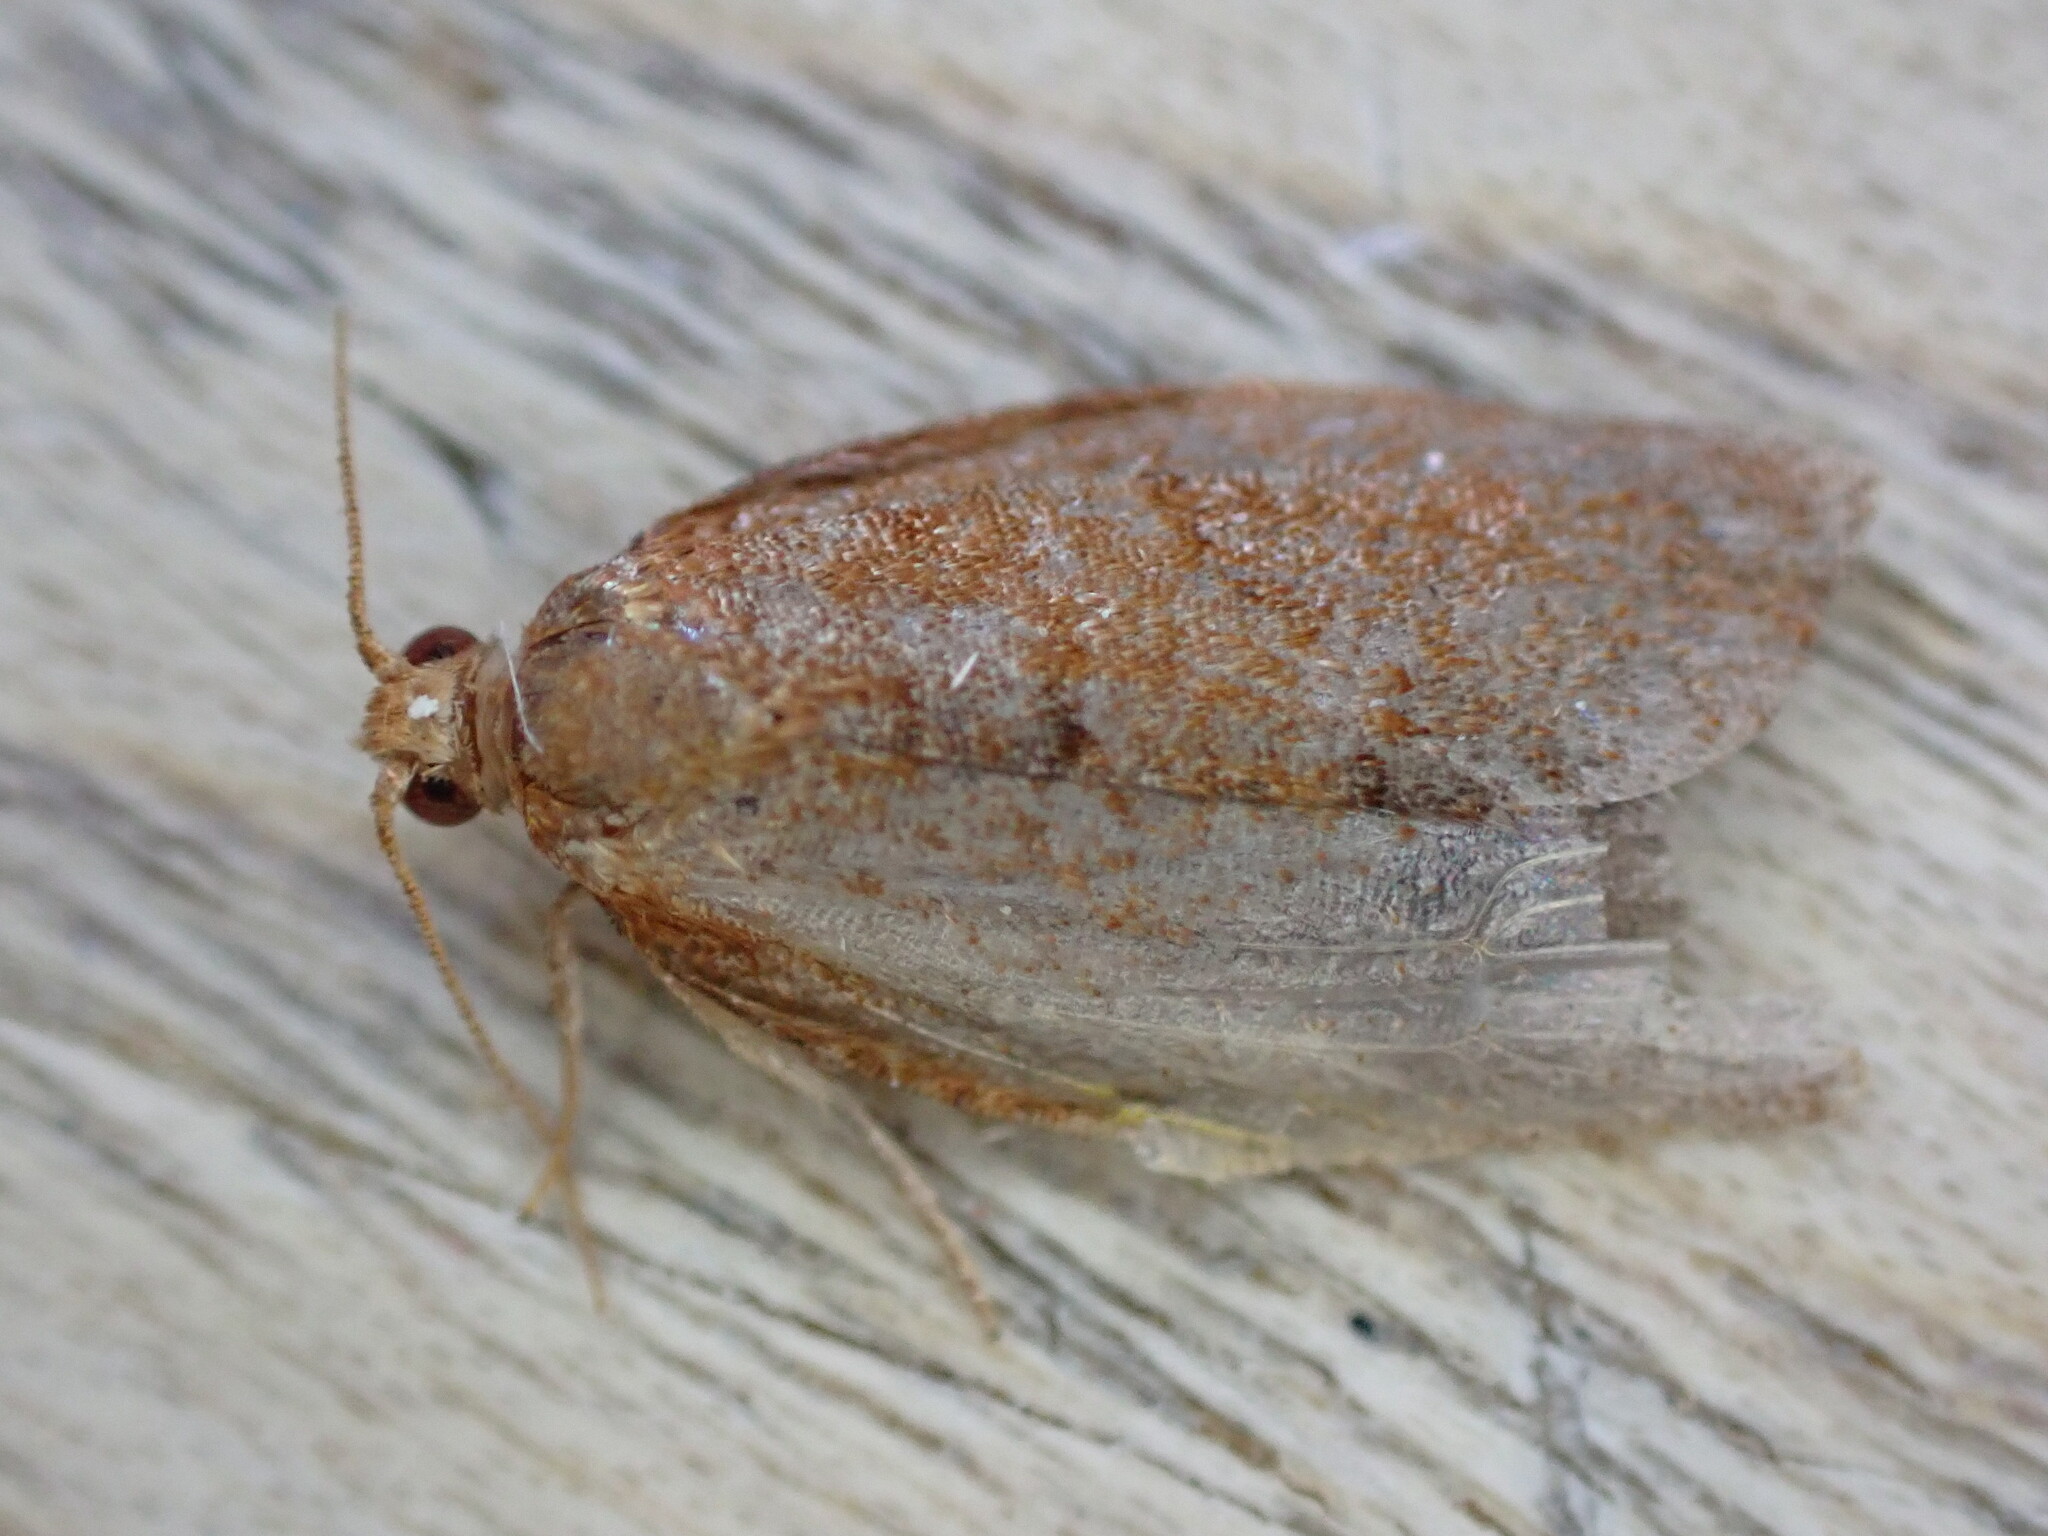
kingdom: Animalia
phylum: Arthropoda
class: Insecta
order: Lepidoptera
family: Tortricidae
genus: Clepsis
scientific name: Clepsis consimilana
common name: Privet tortrix
